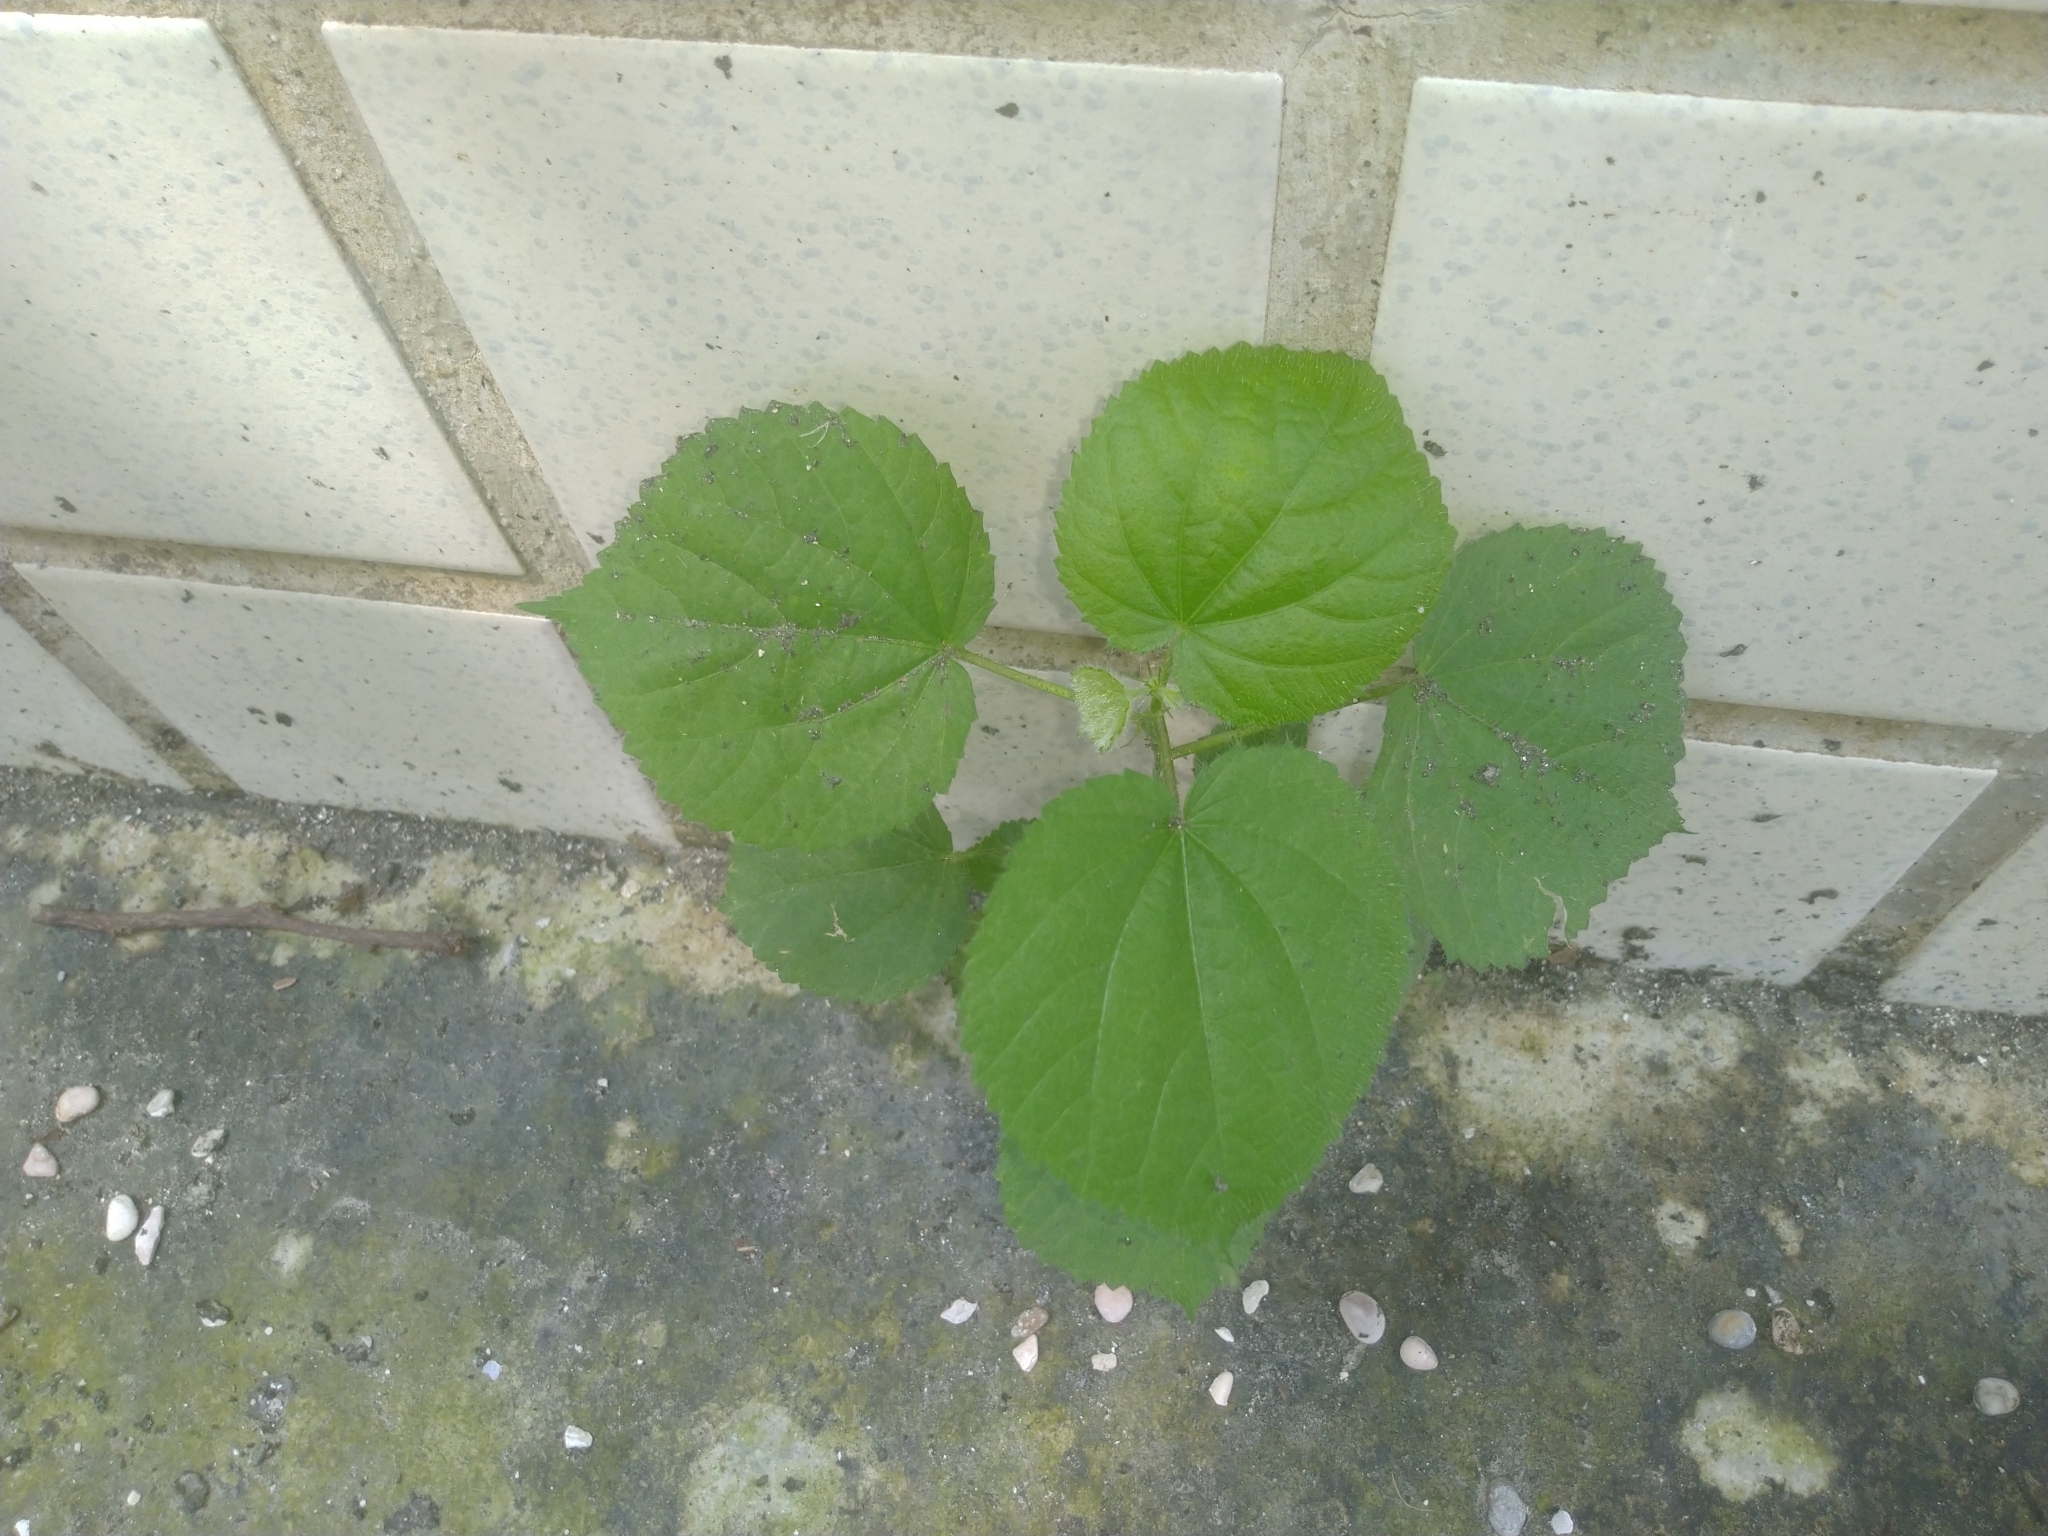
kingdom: Plantae
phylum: Tracheophyta
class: Magnoliopsida
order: Malvales
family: Malvaceae
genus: Sida
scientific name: Sida cordata
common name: Long-stalk sida
